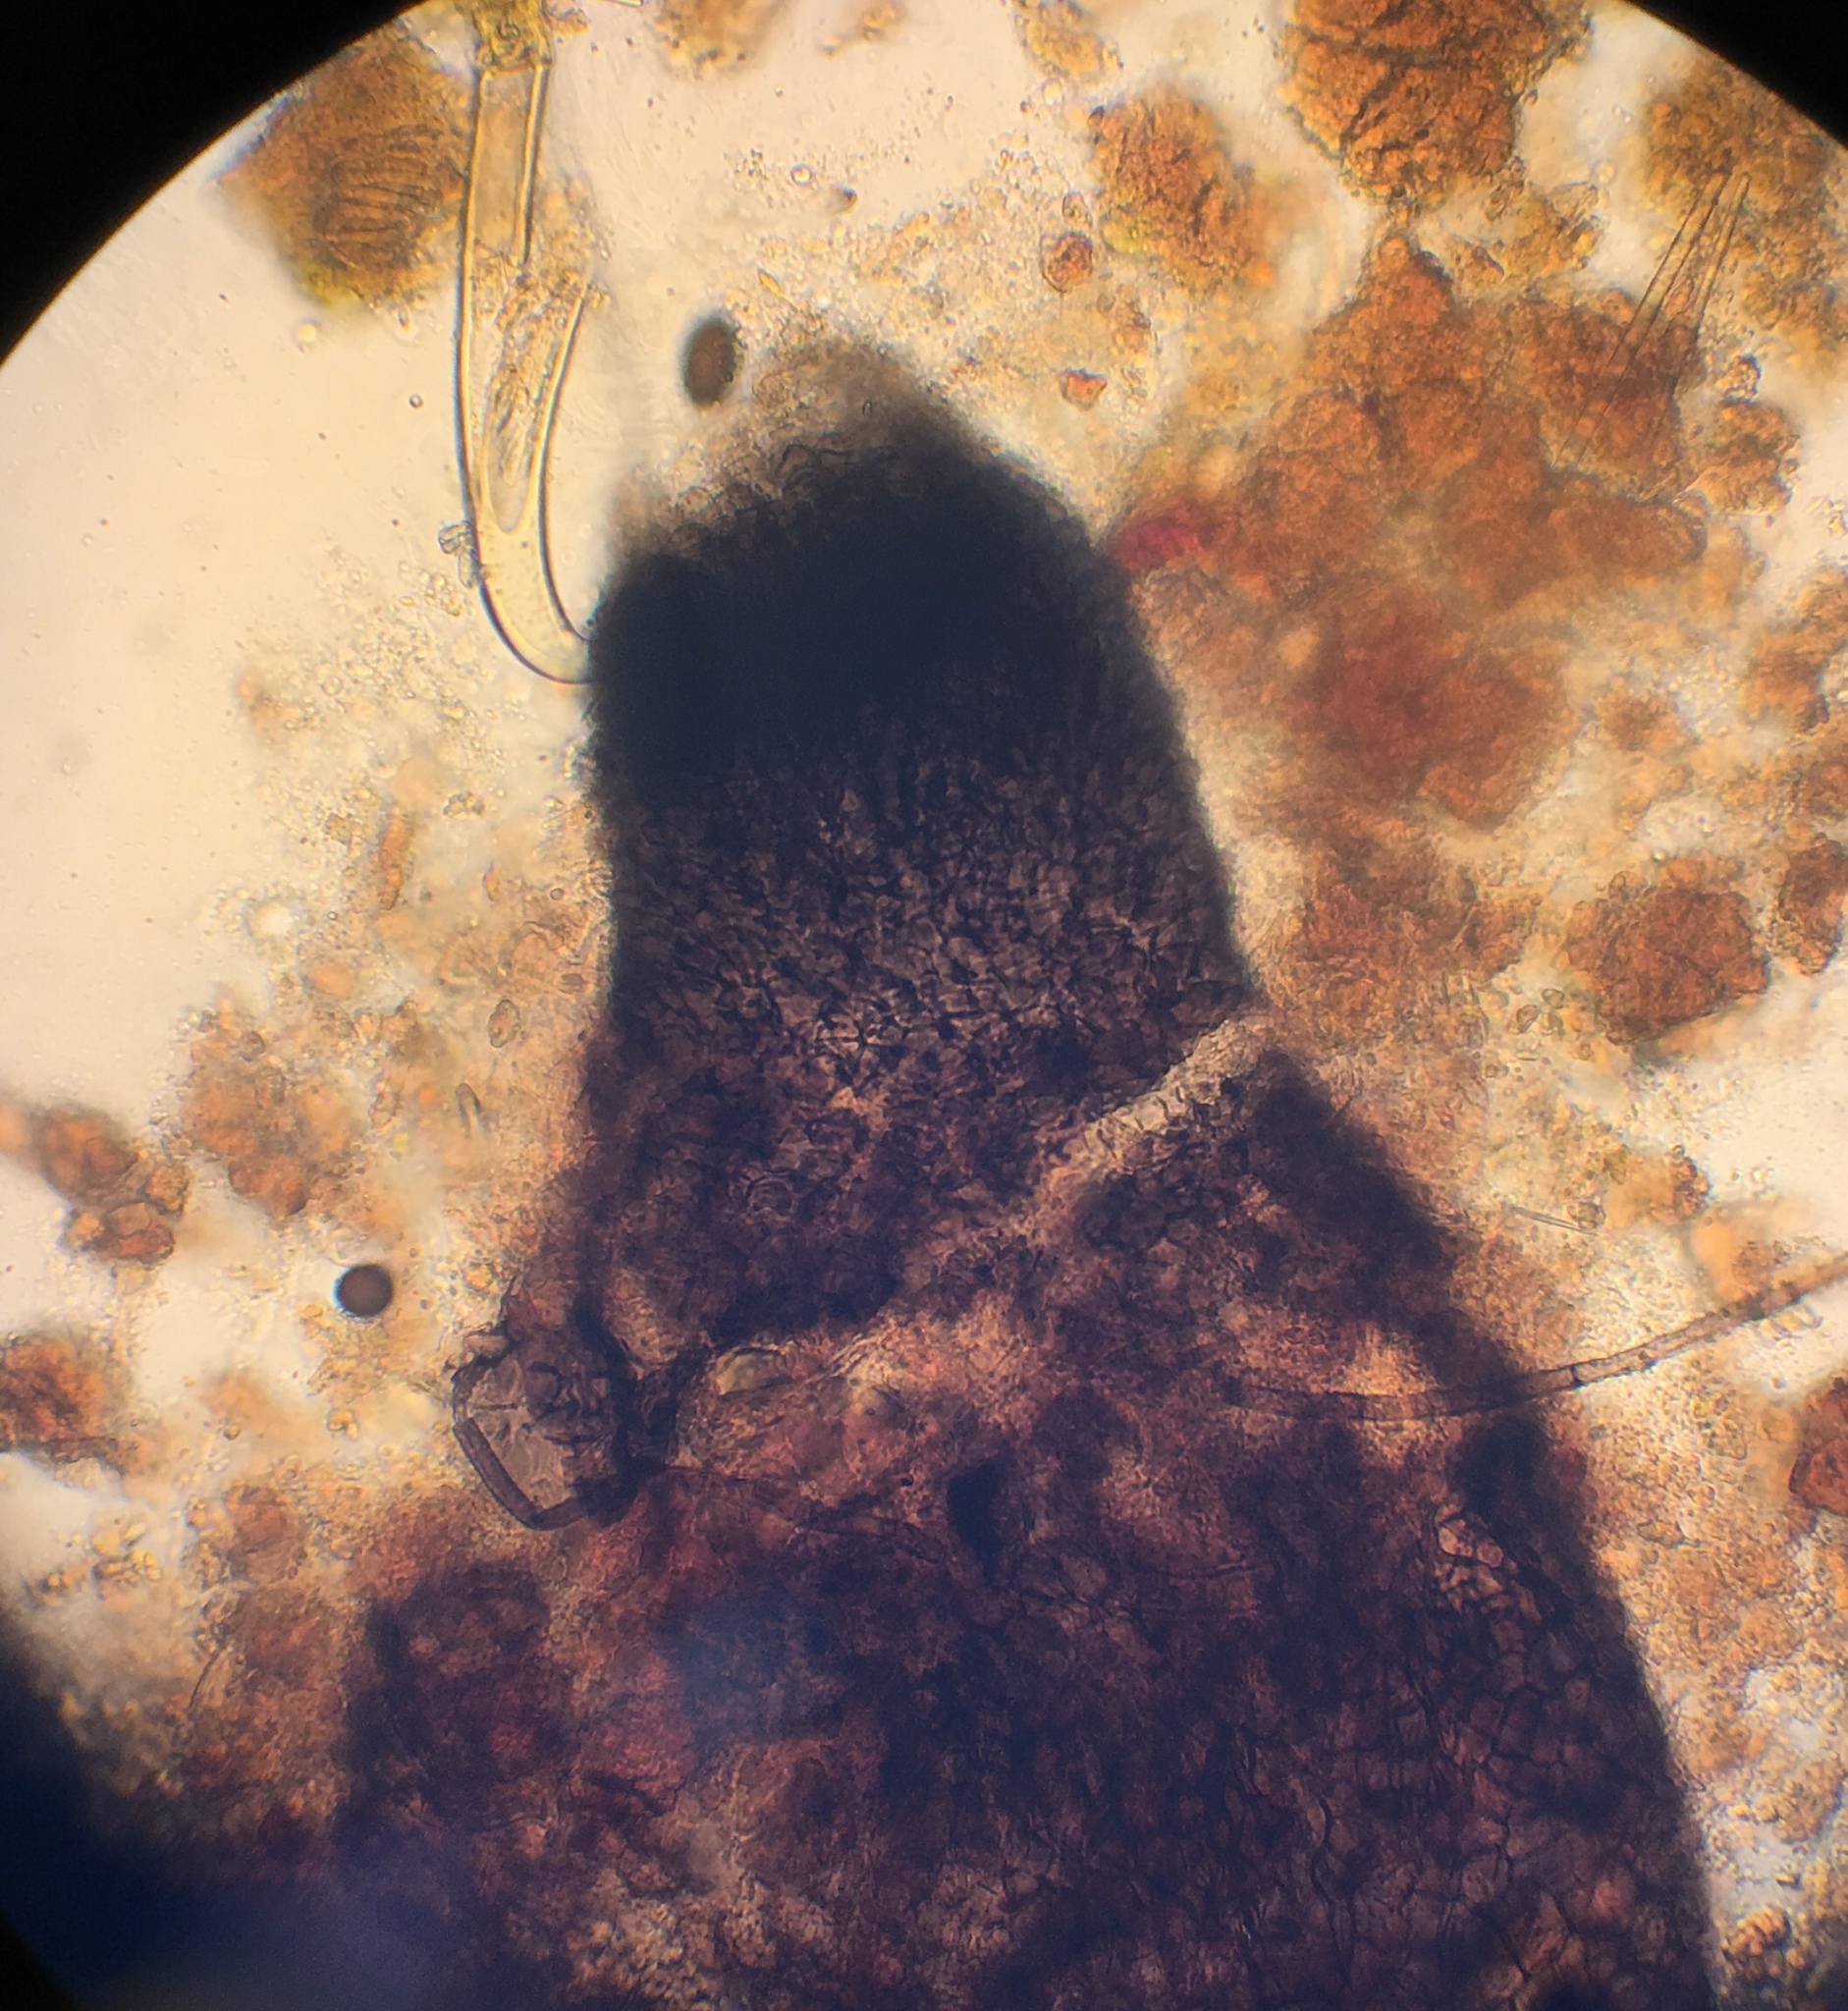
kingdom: Fungi
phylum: Ascomycota
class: Sordariomycetes
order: Sordariales
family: Sordariaceae
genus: Sordaria
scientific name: Sordaria fimicola
